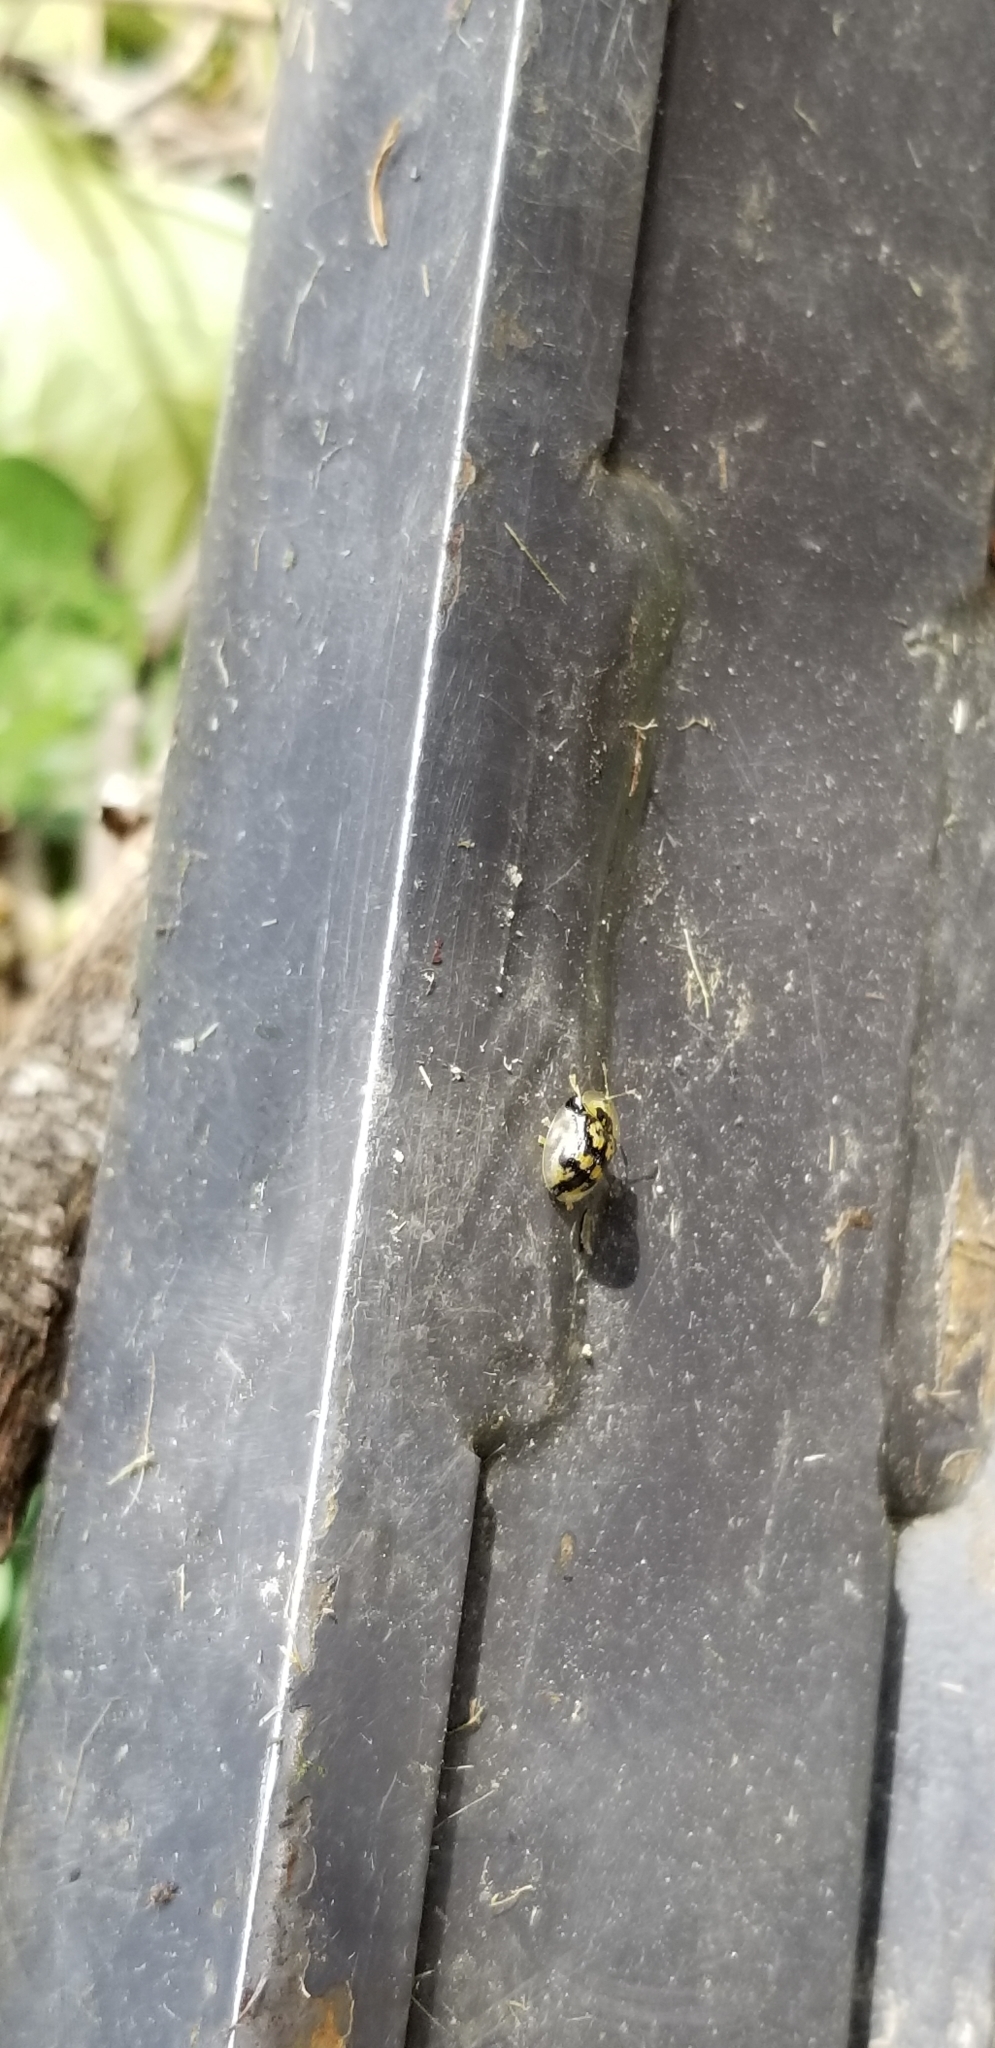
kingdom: Animalia
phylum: Arthropoda
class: Insecta
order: Coleoptera
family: Chrysomelidae
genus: Deloyala
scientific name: Deloyala guttata
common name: Mottled tortoise beetle
